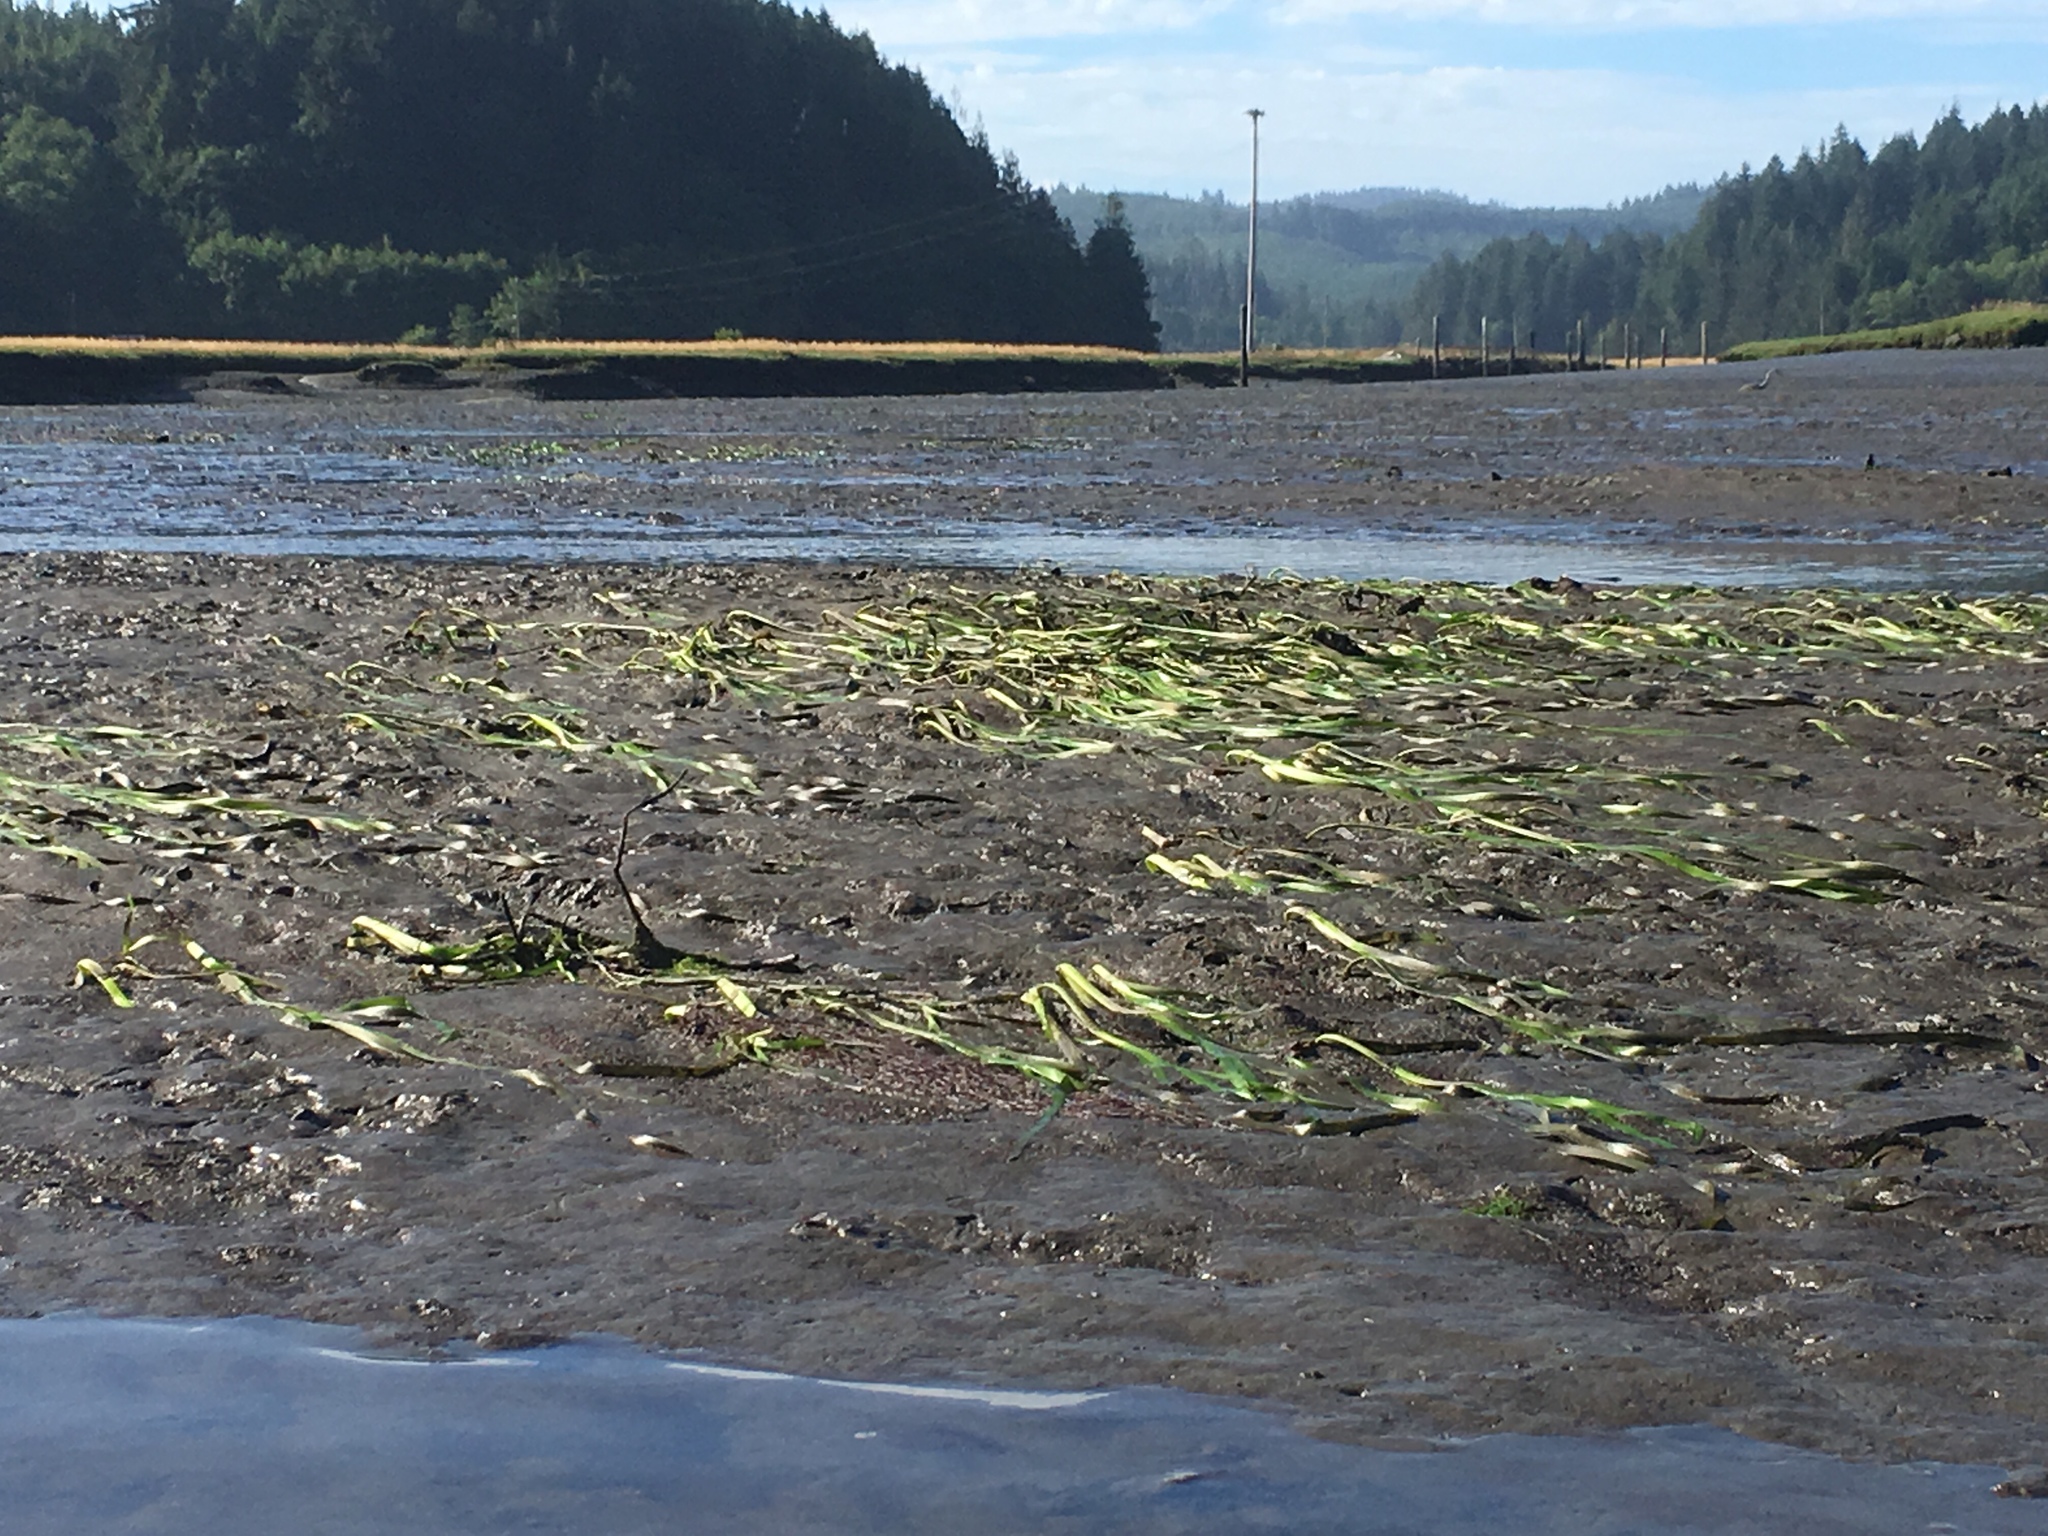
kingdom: Plantae
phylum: Tracheophyta
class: Liliopsida
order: Alismatales
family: Zosteraceae
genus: Zostera
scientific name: Zostera marina
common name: Eelgrass
